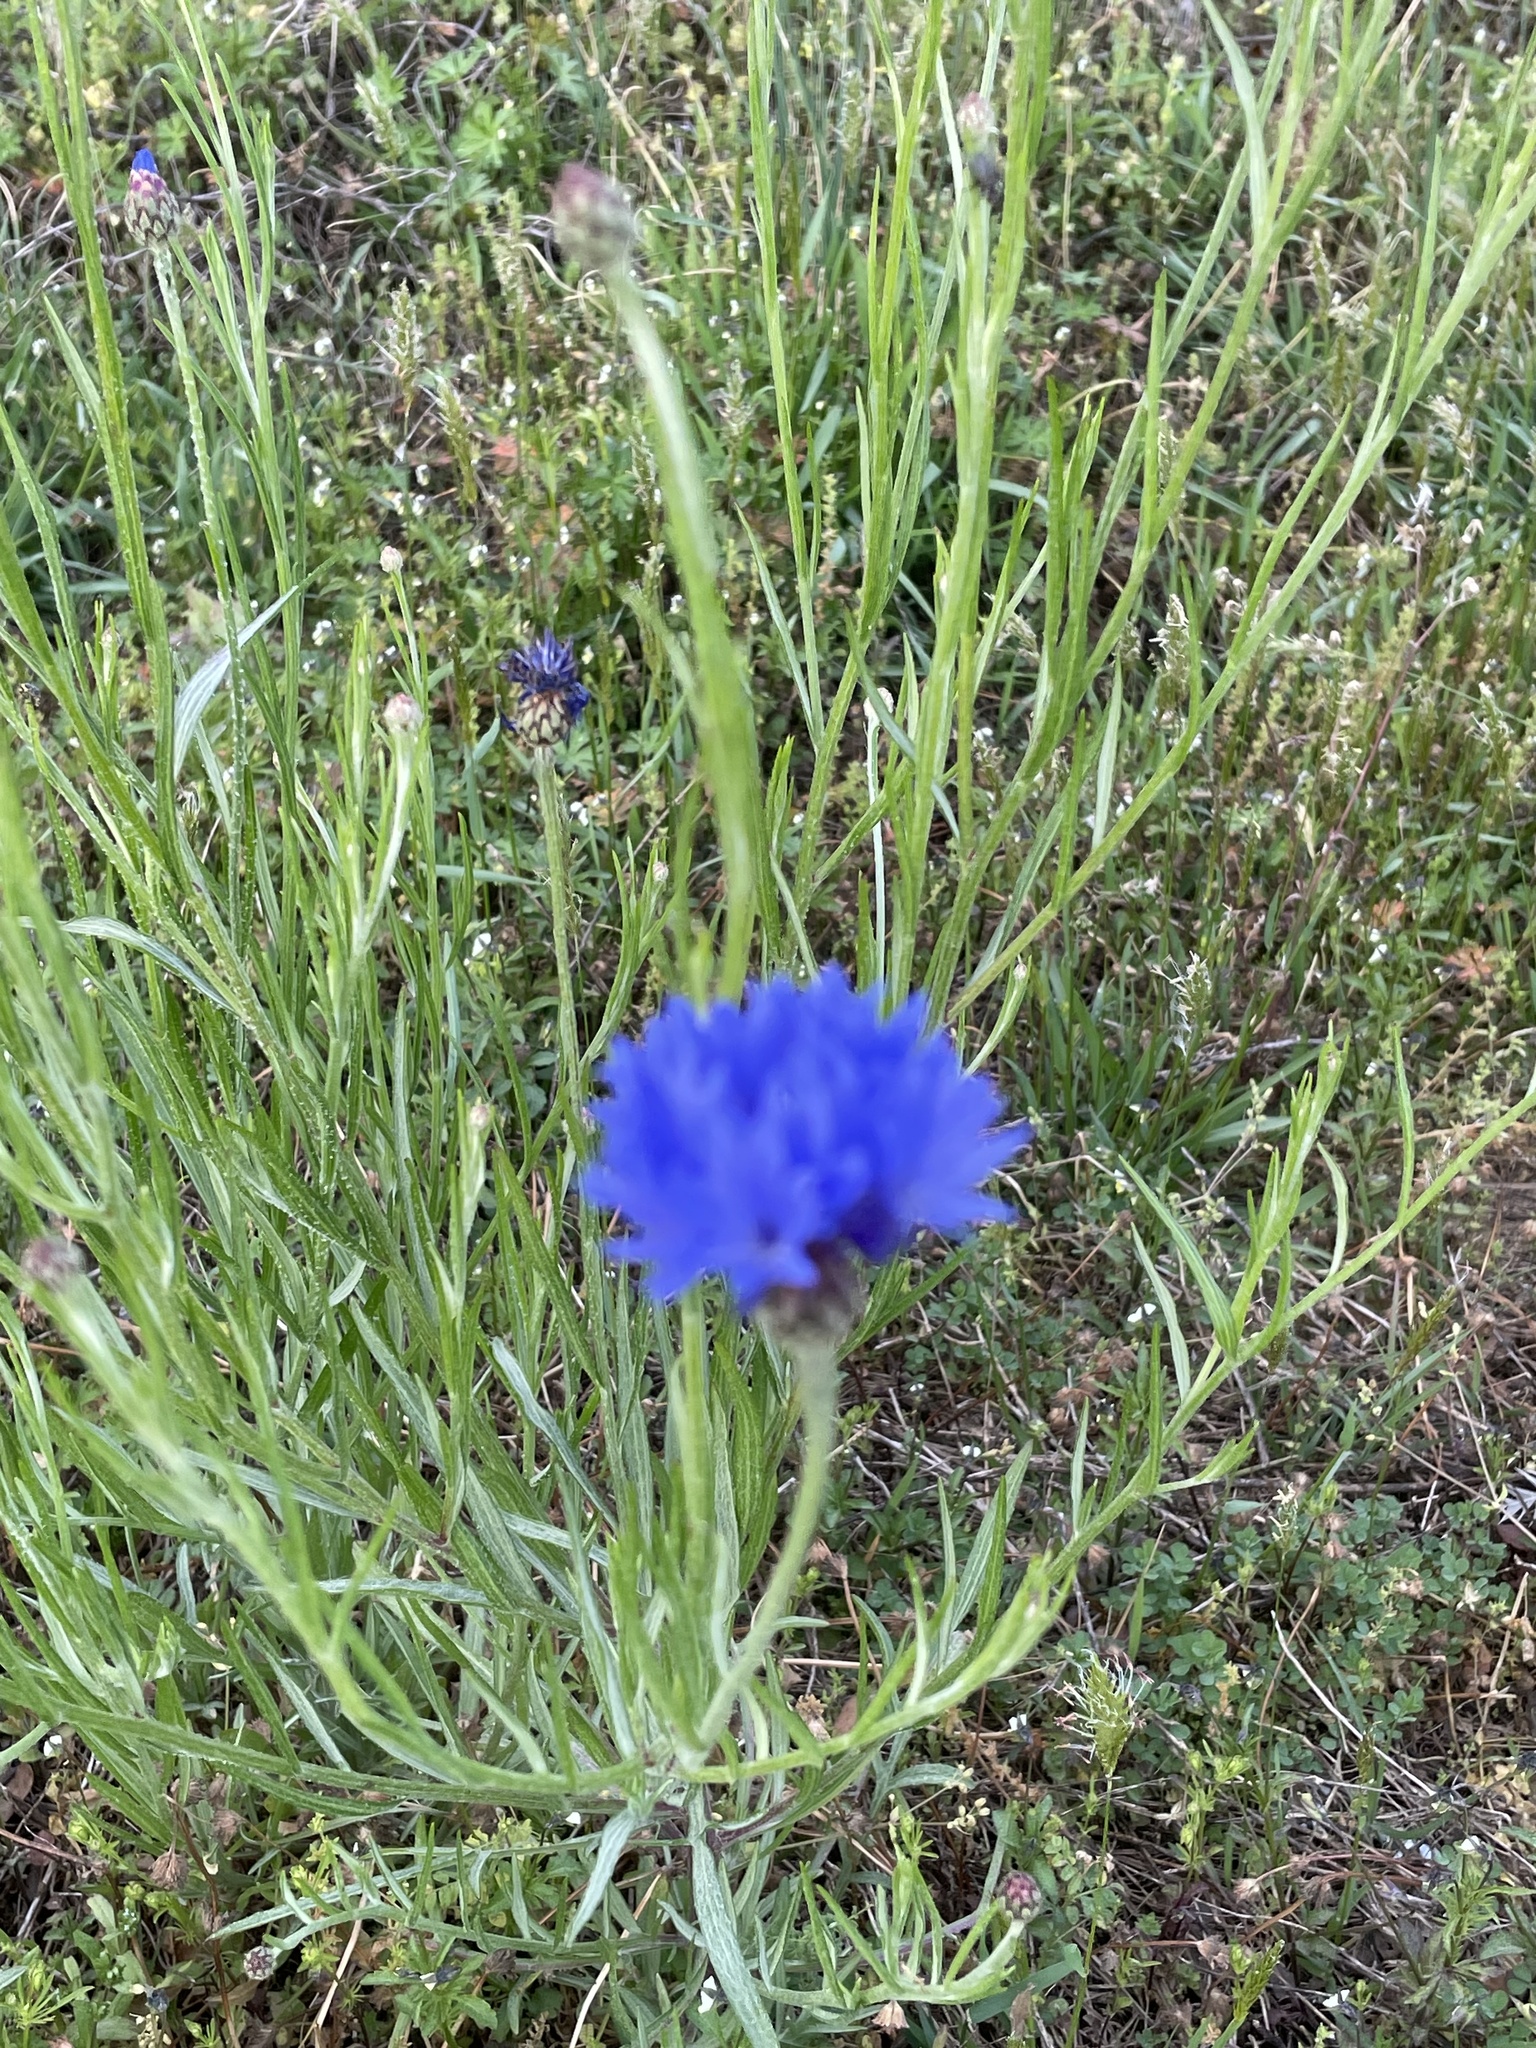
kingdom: Plantae
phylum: Tracheophyta
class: Magnoliopsida
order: Asterales
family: Asteraceae
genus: Centaurea
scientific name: Centaurea cyanus
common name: Cornflower
